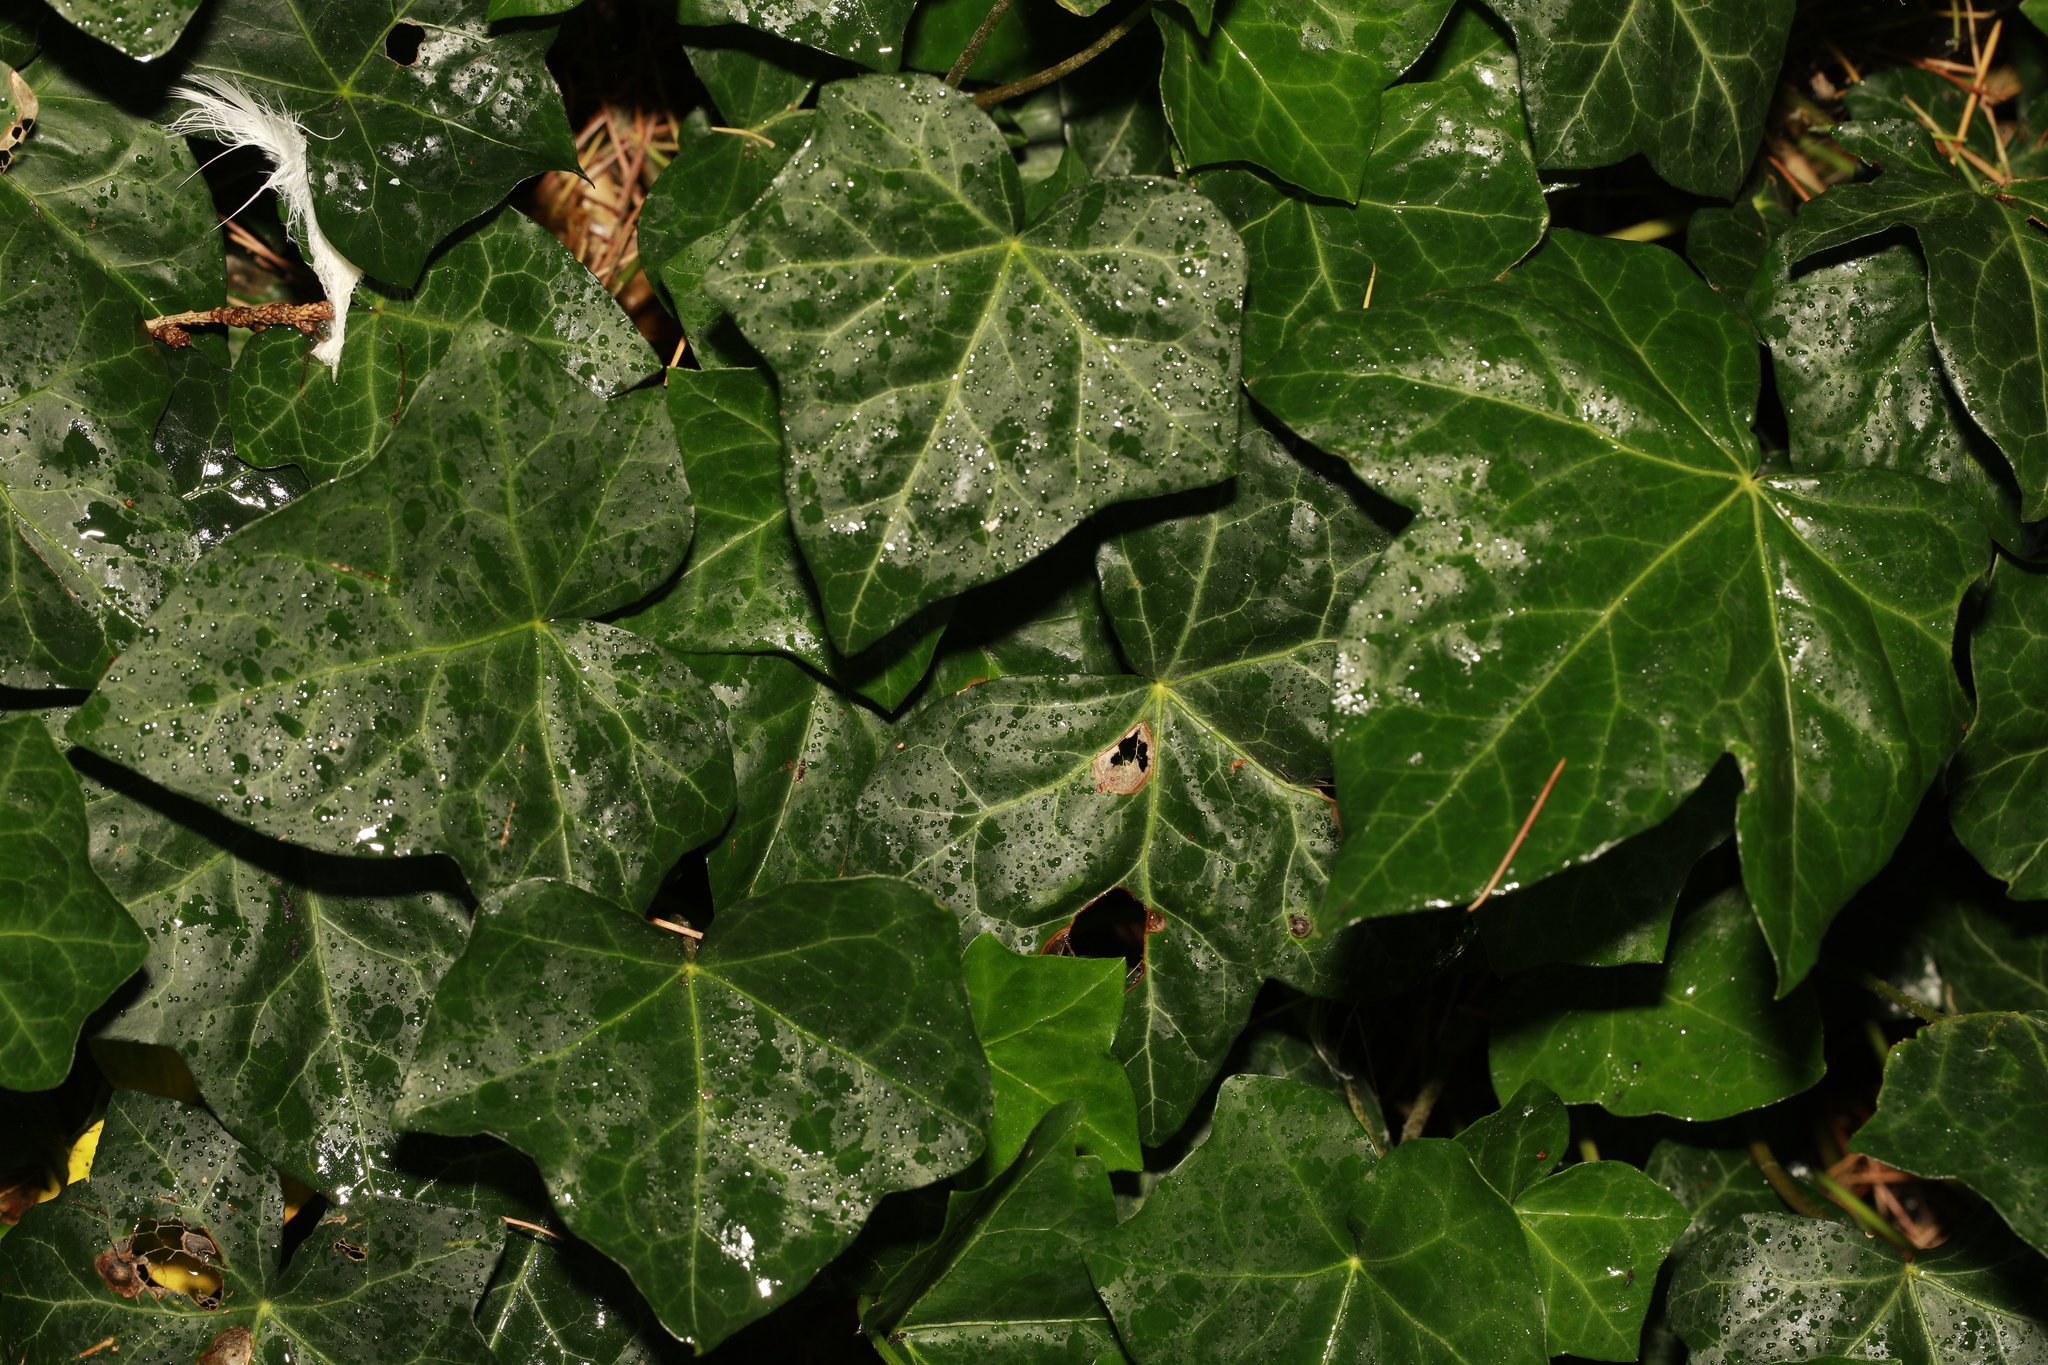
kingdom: Plantae
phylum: Tracheophyta
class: Magnoliopsida
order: Apiales
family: Araliaceae
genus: Hedera
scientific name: Hedera helix
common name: Ivy
